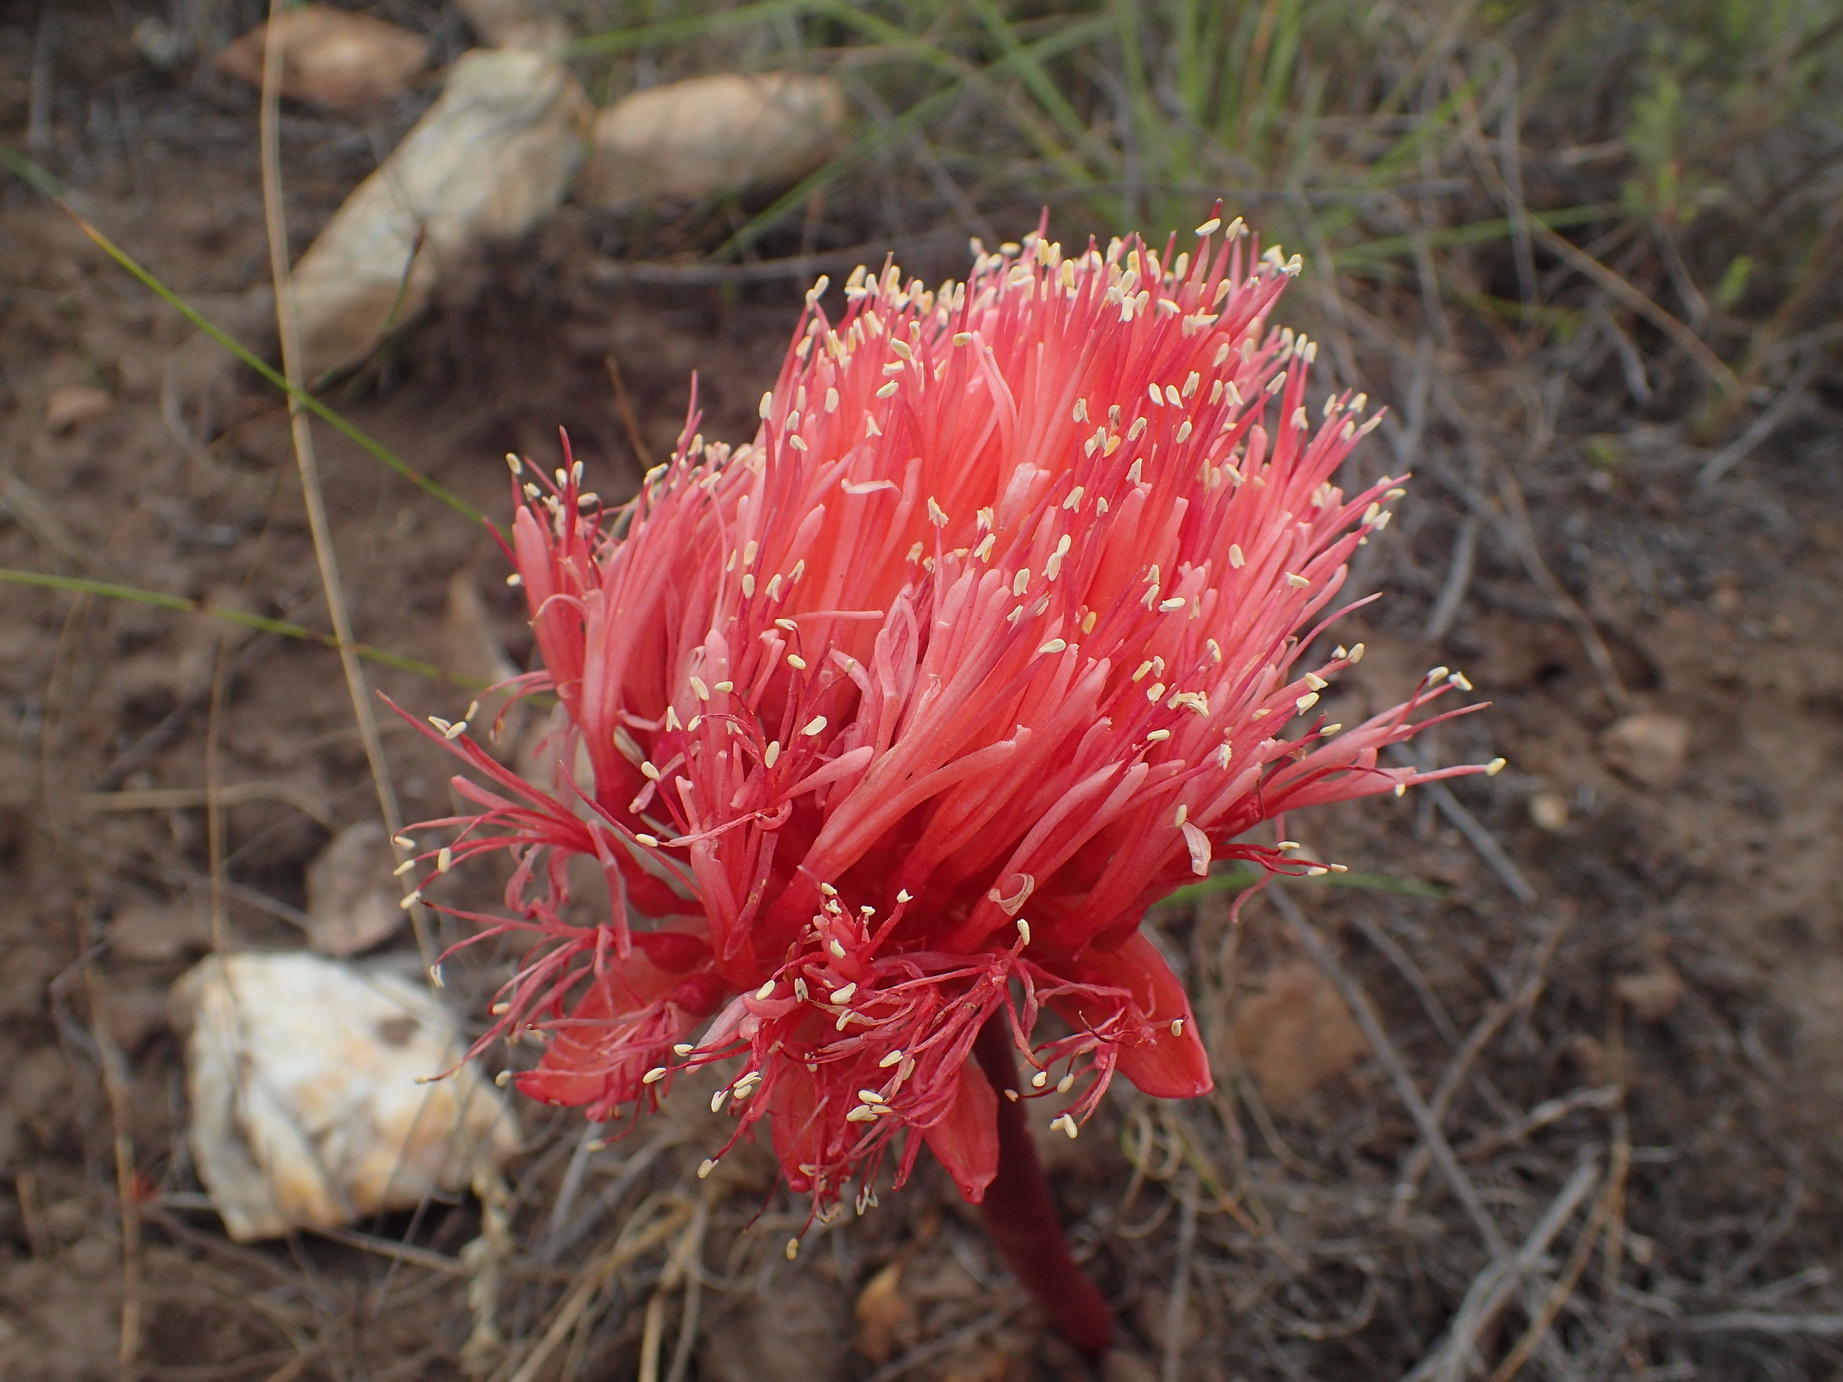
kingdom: Plantae
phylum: Tracheophyta
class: Liliopsida
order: Asparagales
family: Amaryllidaceae
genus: Haemanthus
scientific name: Haemanthus sanguineus
